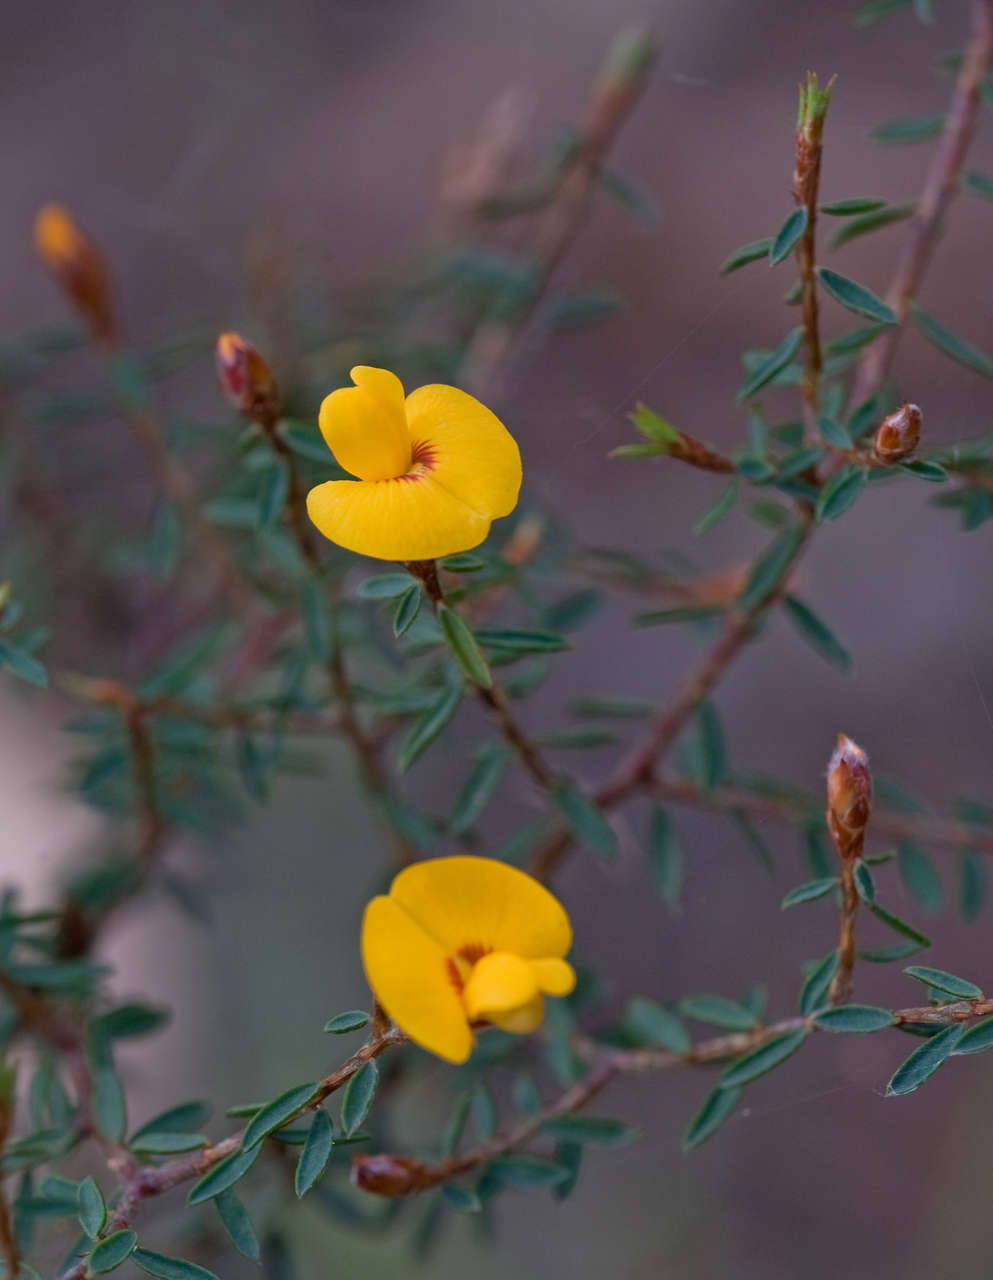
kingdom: Plantae
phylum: Tracheophyta
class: Magnoliopsida
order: Fabales
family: Fabaceae
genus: Pultenaea
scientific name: Pultenaea reflexifolia
